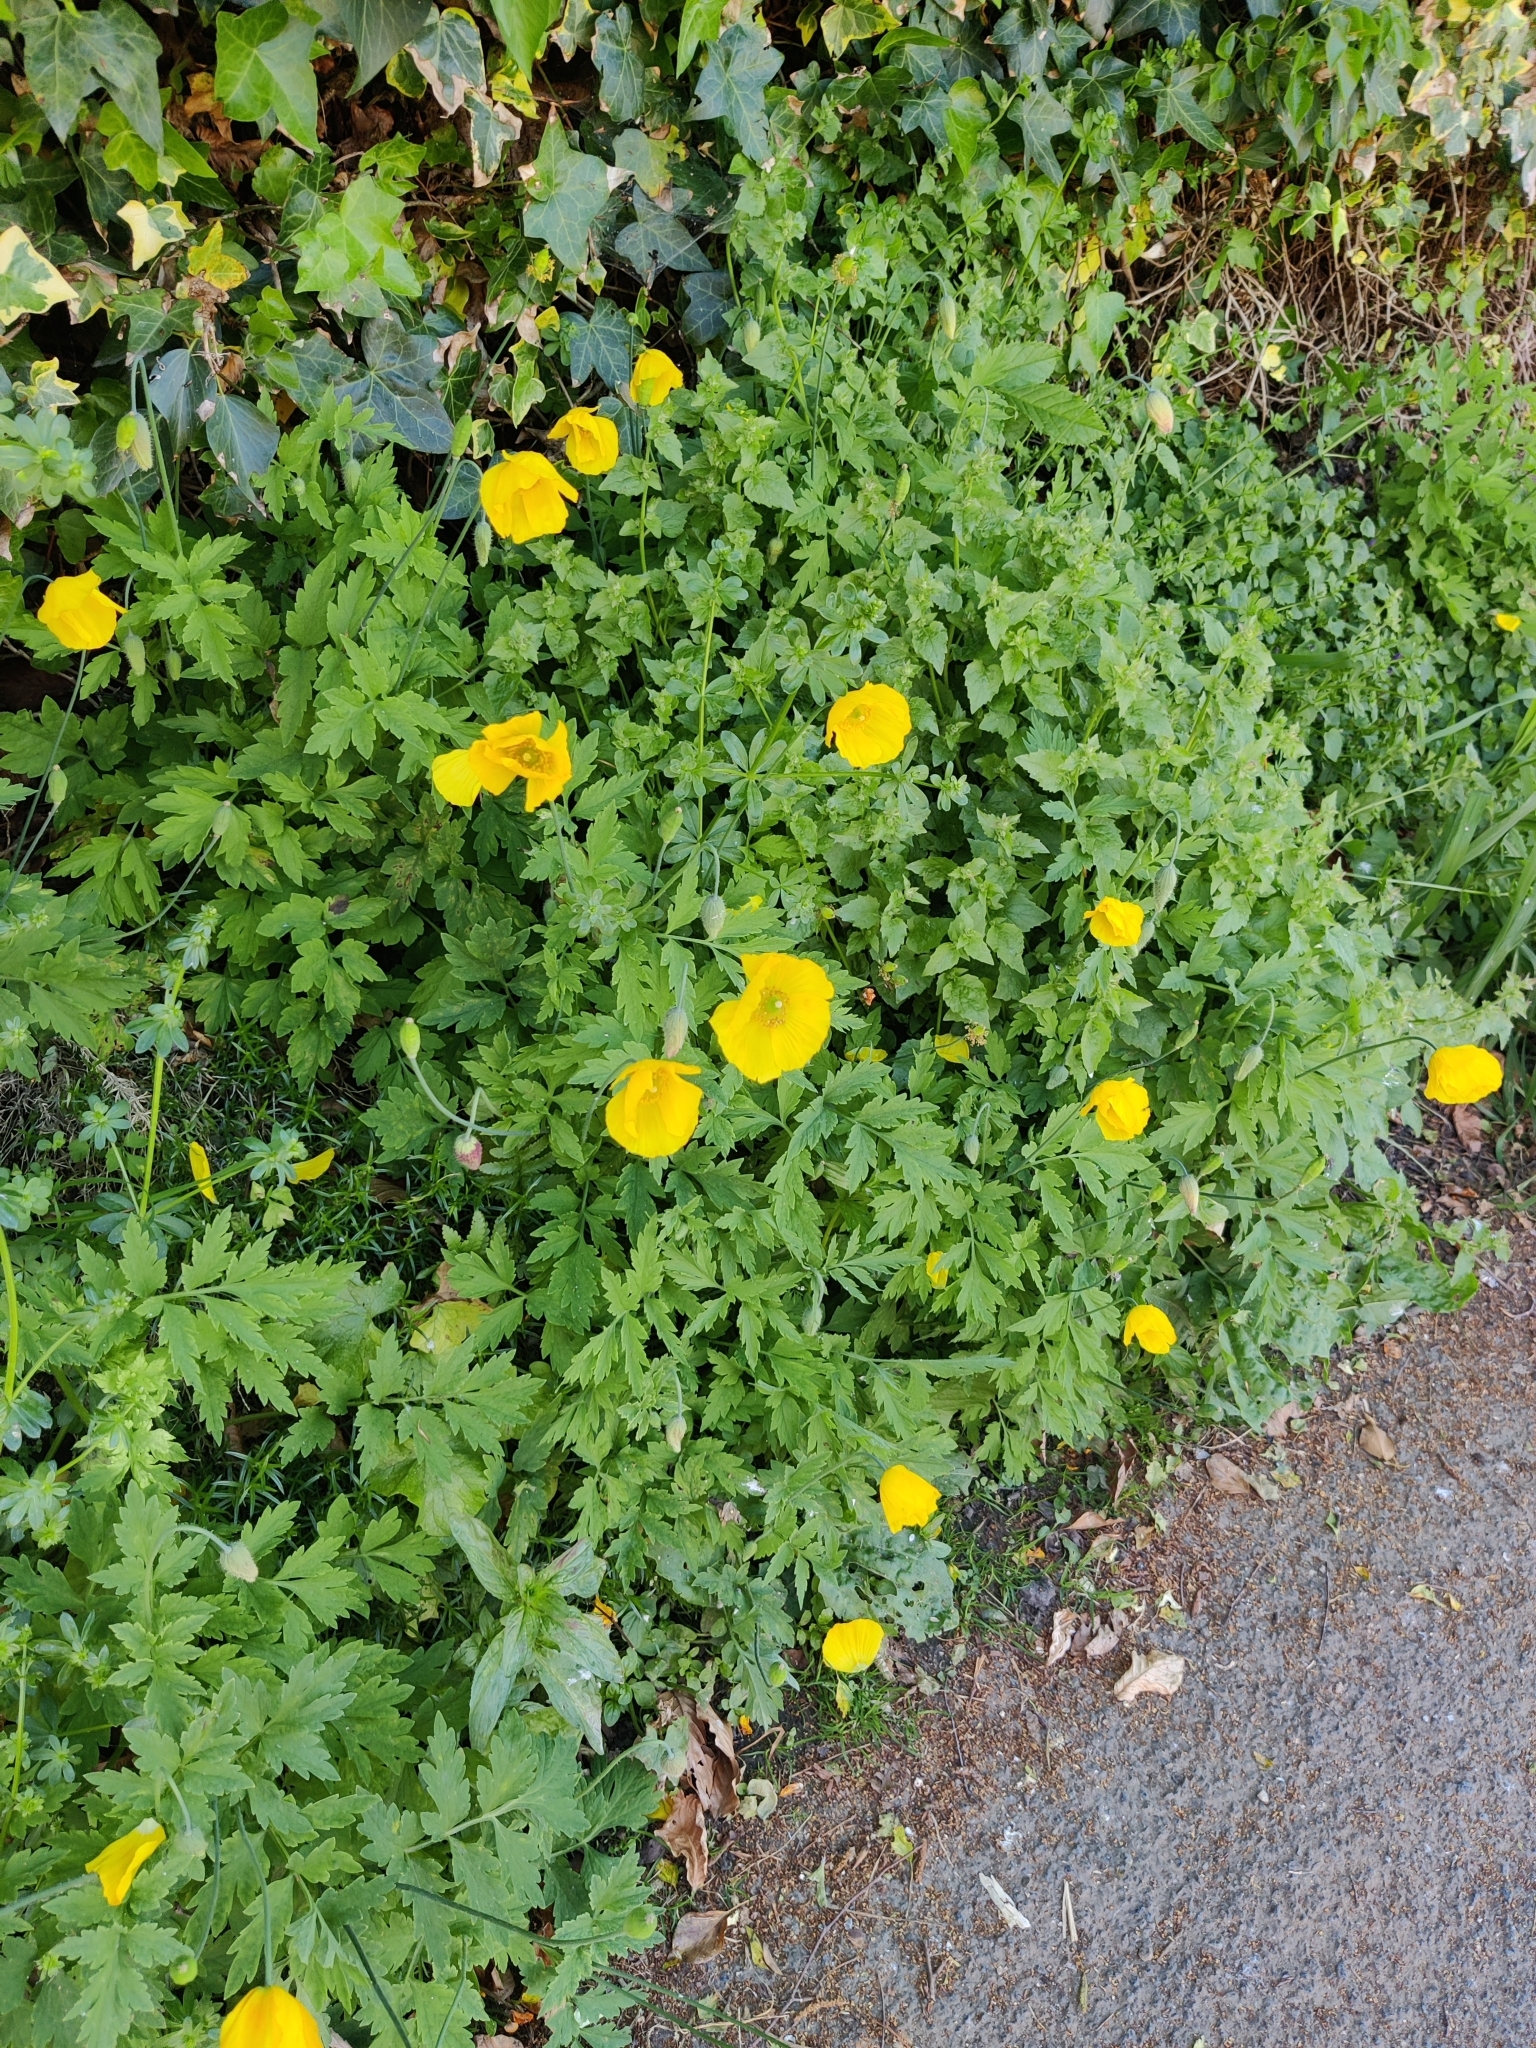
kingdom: Plantae
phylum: Tracheophyta
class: Magnoliopsida
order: Ranunculales
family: Papaveraceae
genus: Papaver
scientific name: Papaver cambricum
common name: Poppy
